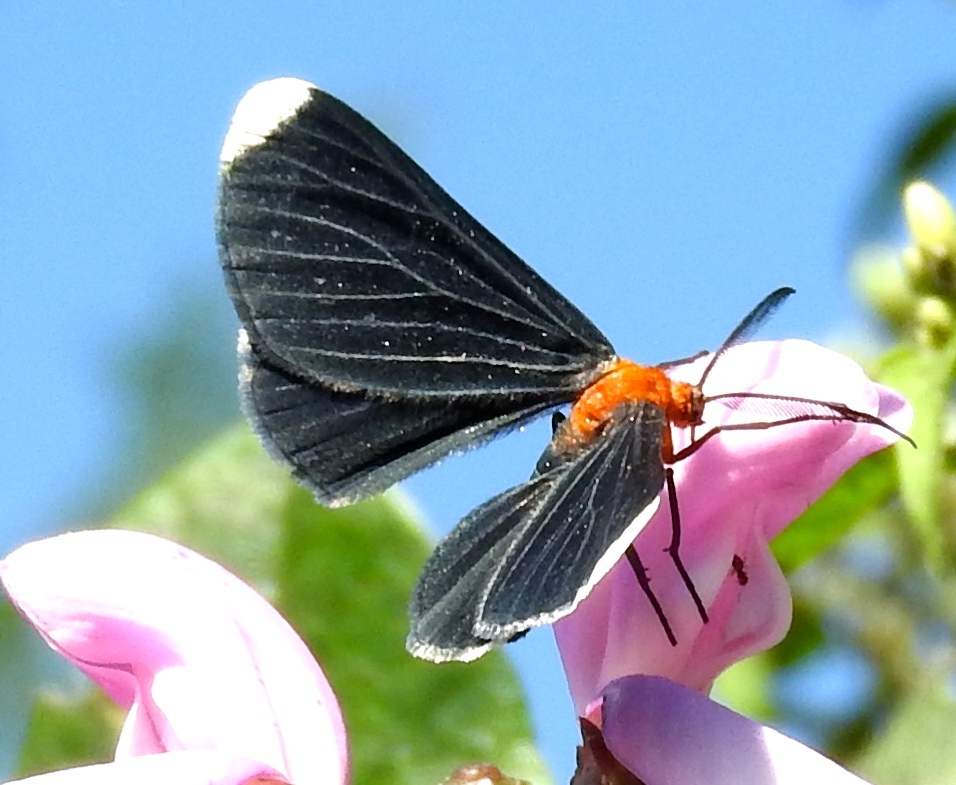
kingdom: Animalia
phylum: Arthropoda
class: Insecta
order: Lepidoptera
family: Geometridae
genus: Melanchroia
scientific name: Melanchroia chephise
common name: White-tipped black
